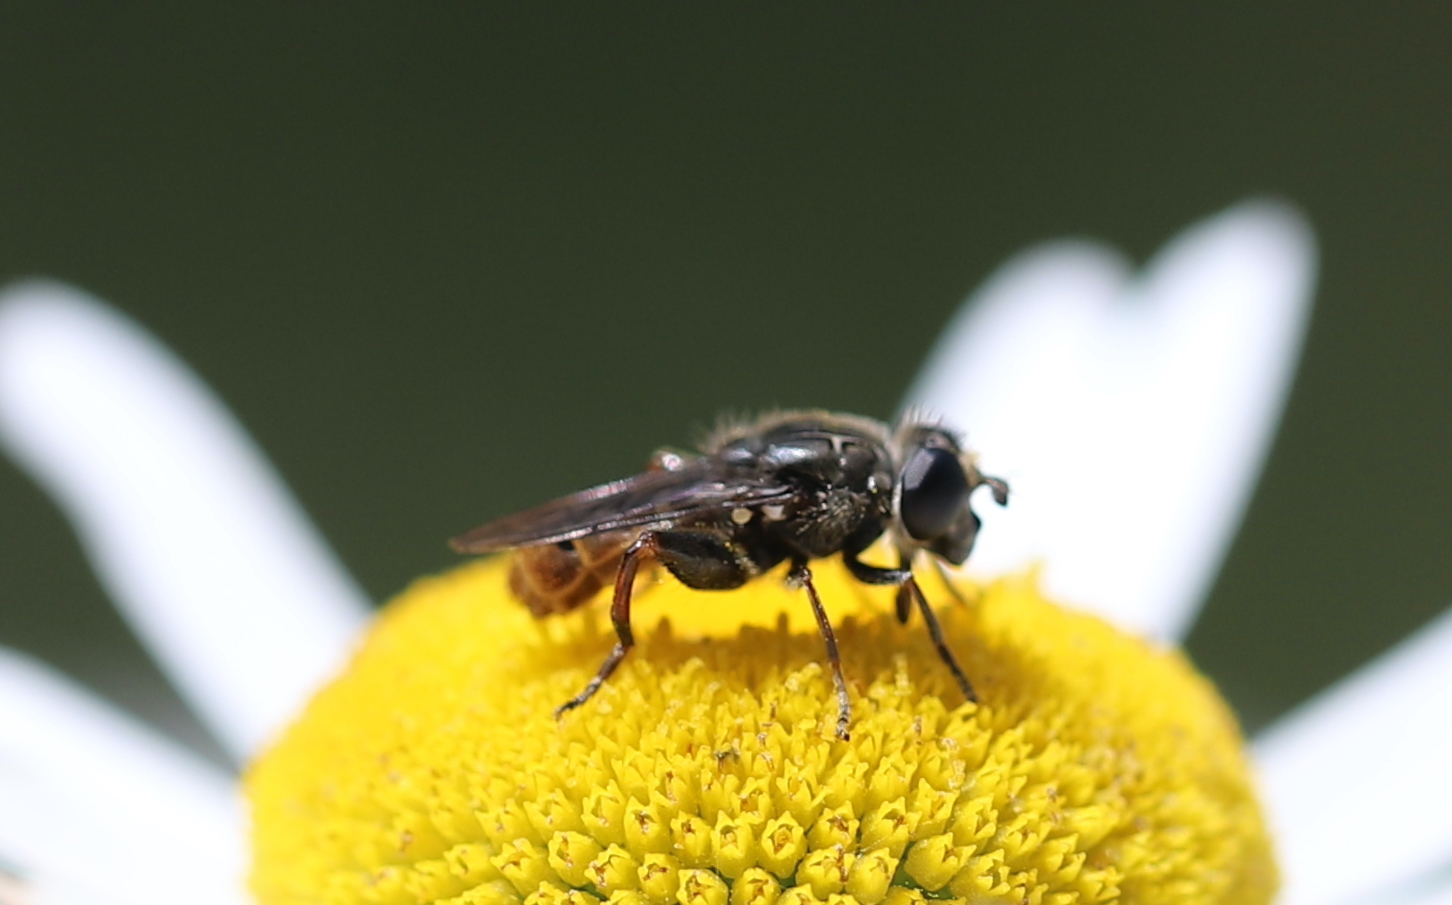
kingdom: Animalia
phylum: Arthropoda
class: Insecta
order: Diptera
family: Syrphidae
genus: Asemosyrphus
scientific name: Asemosyrphus
